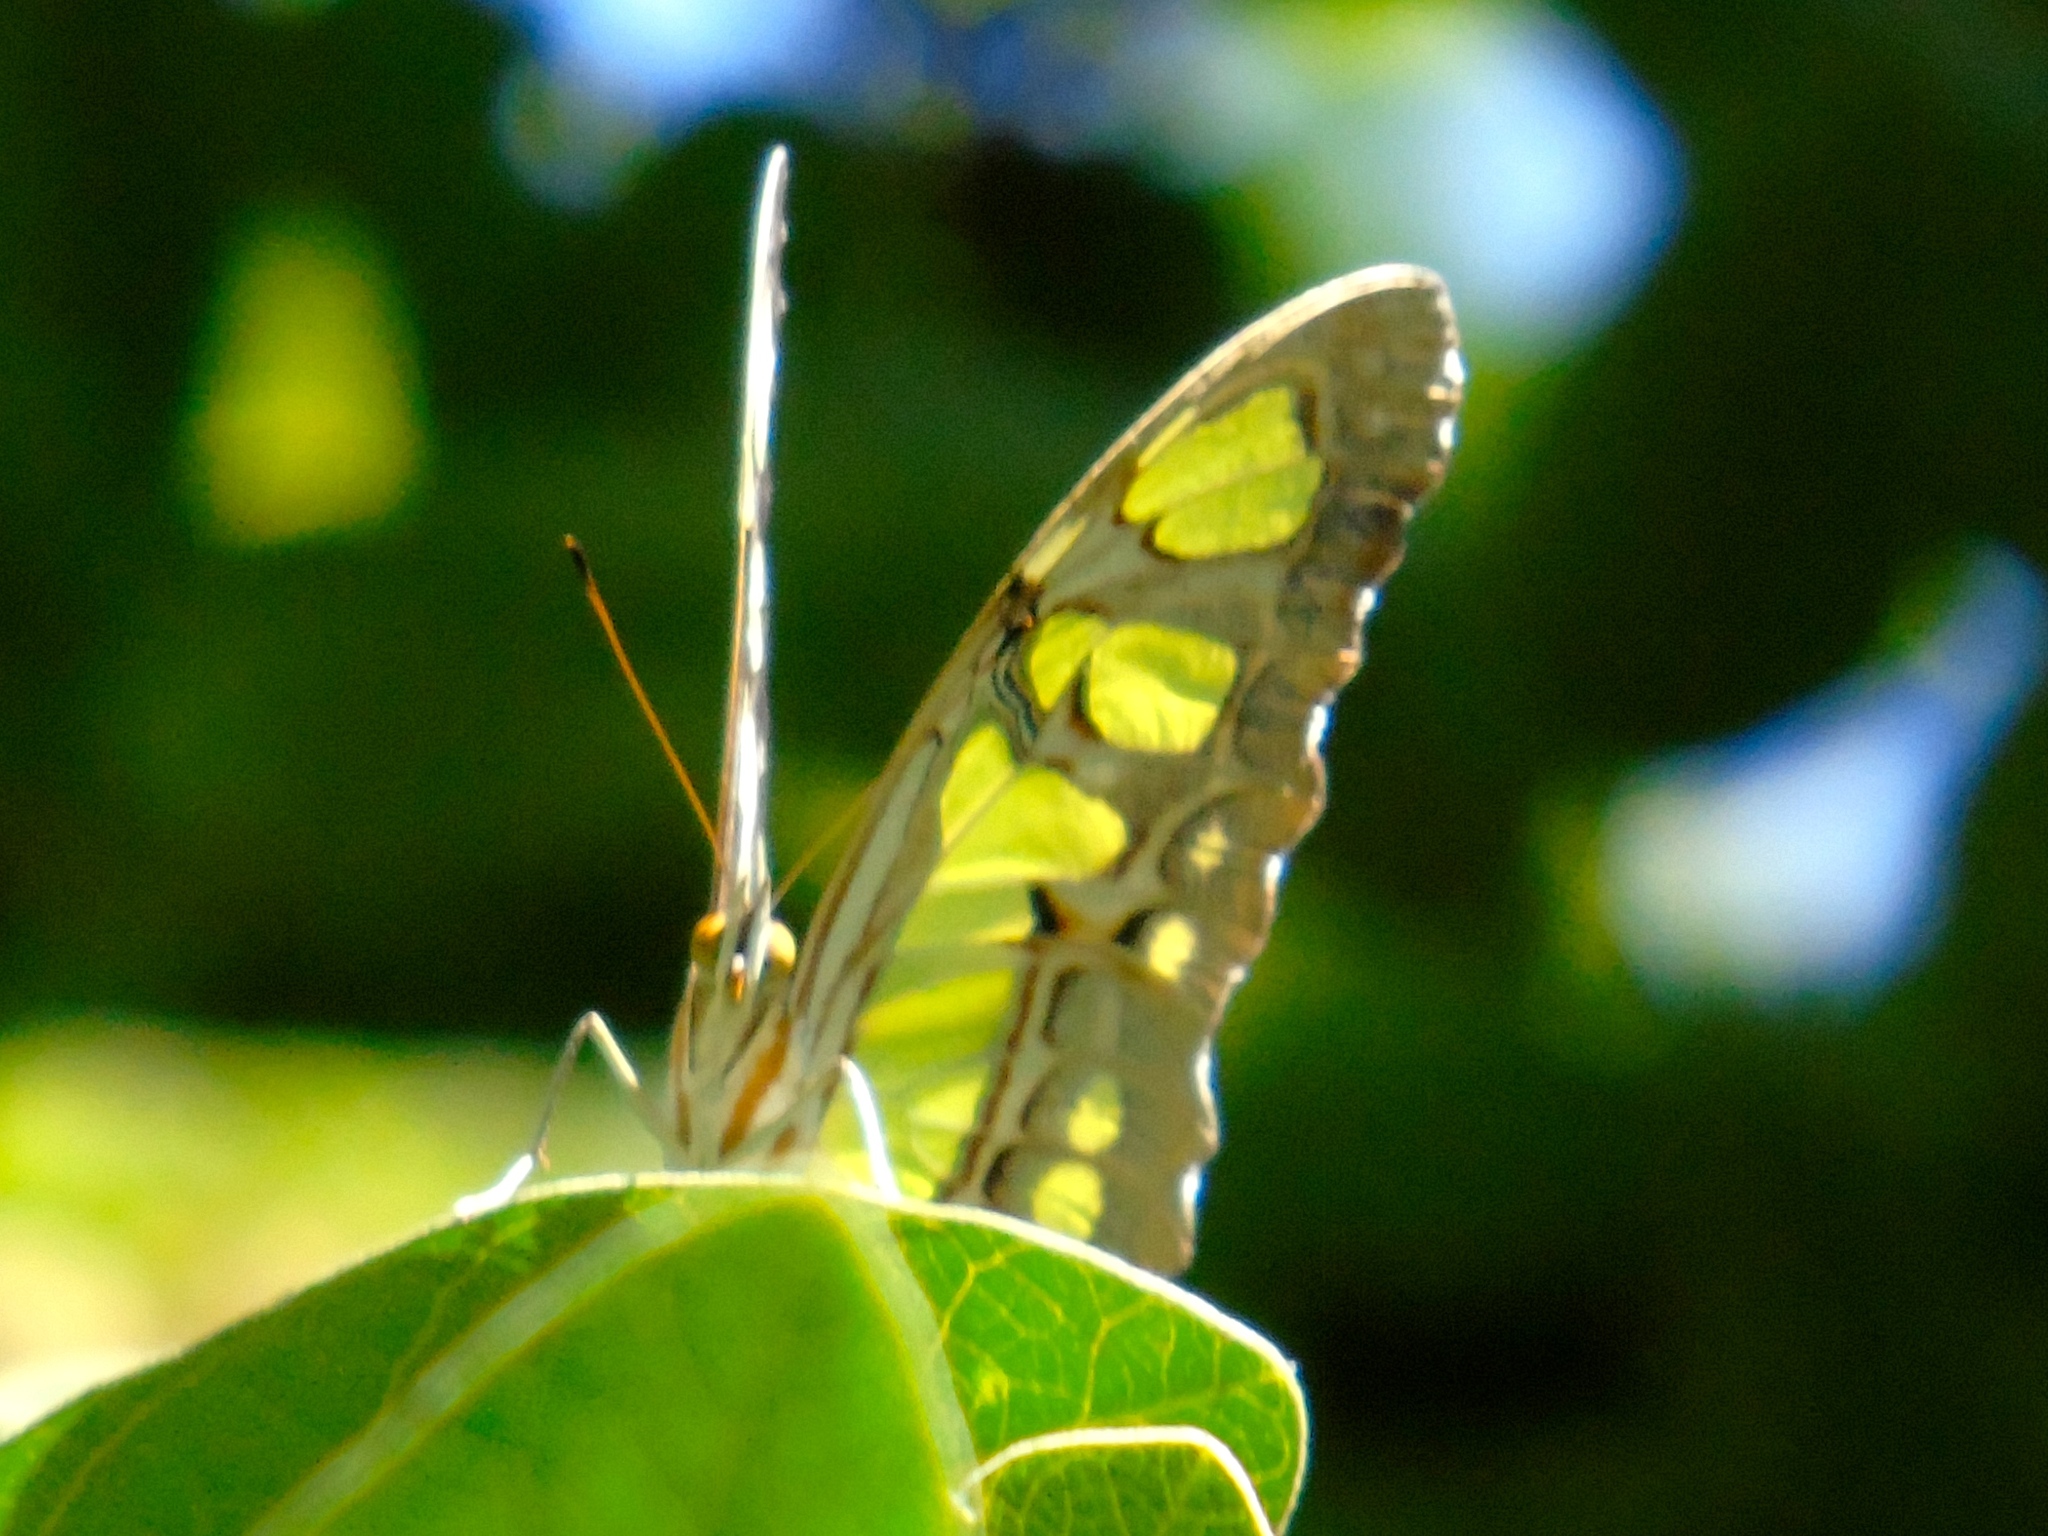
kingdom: Animalia
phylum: Arthropoda
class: Insecta
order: Lepidoptera
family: Nymphalidae
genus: Siproeta
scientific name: Siproeta stelenes
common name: Malachite
